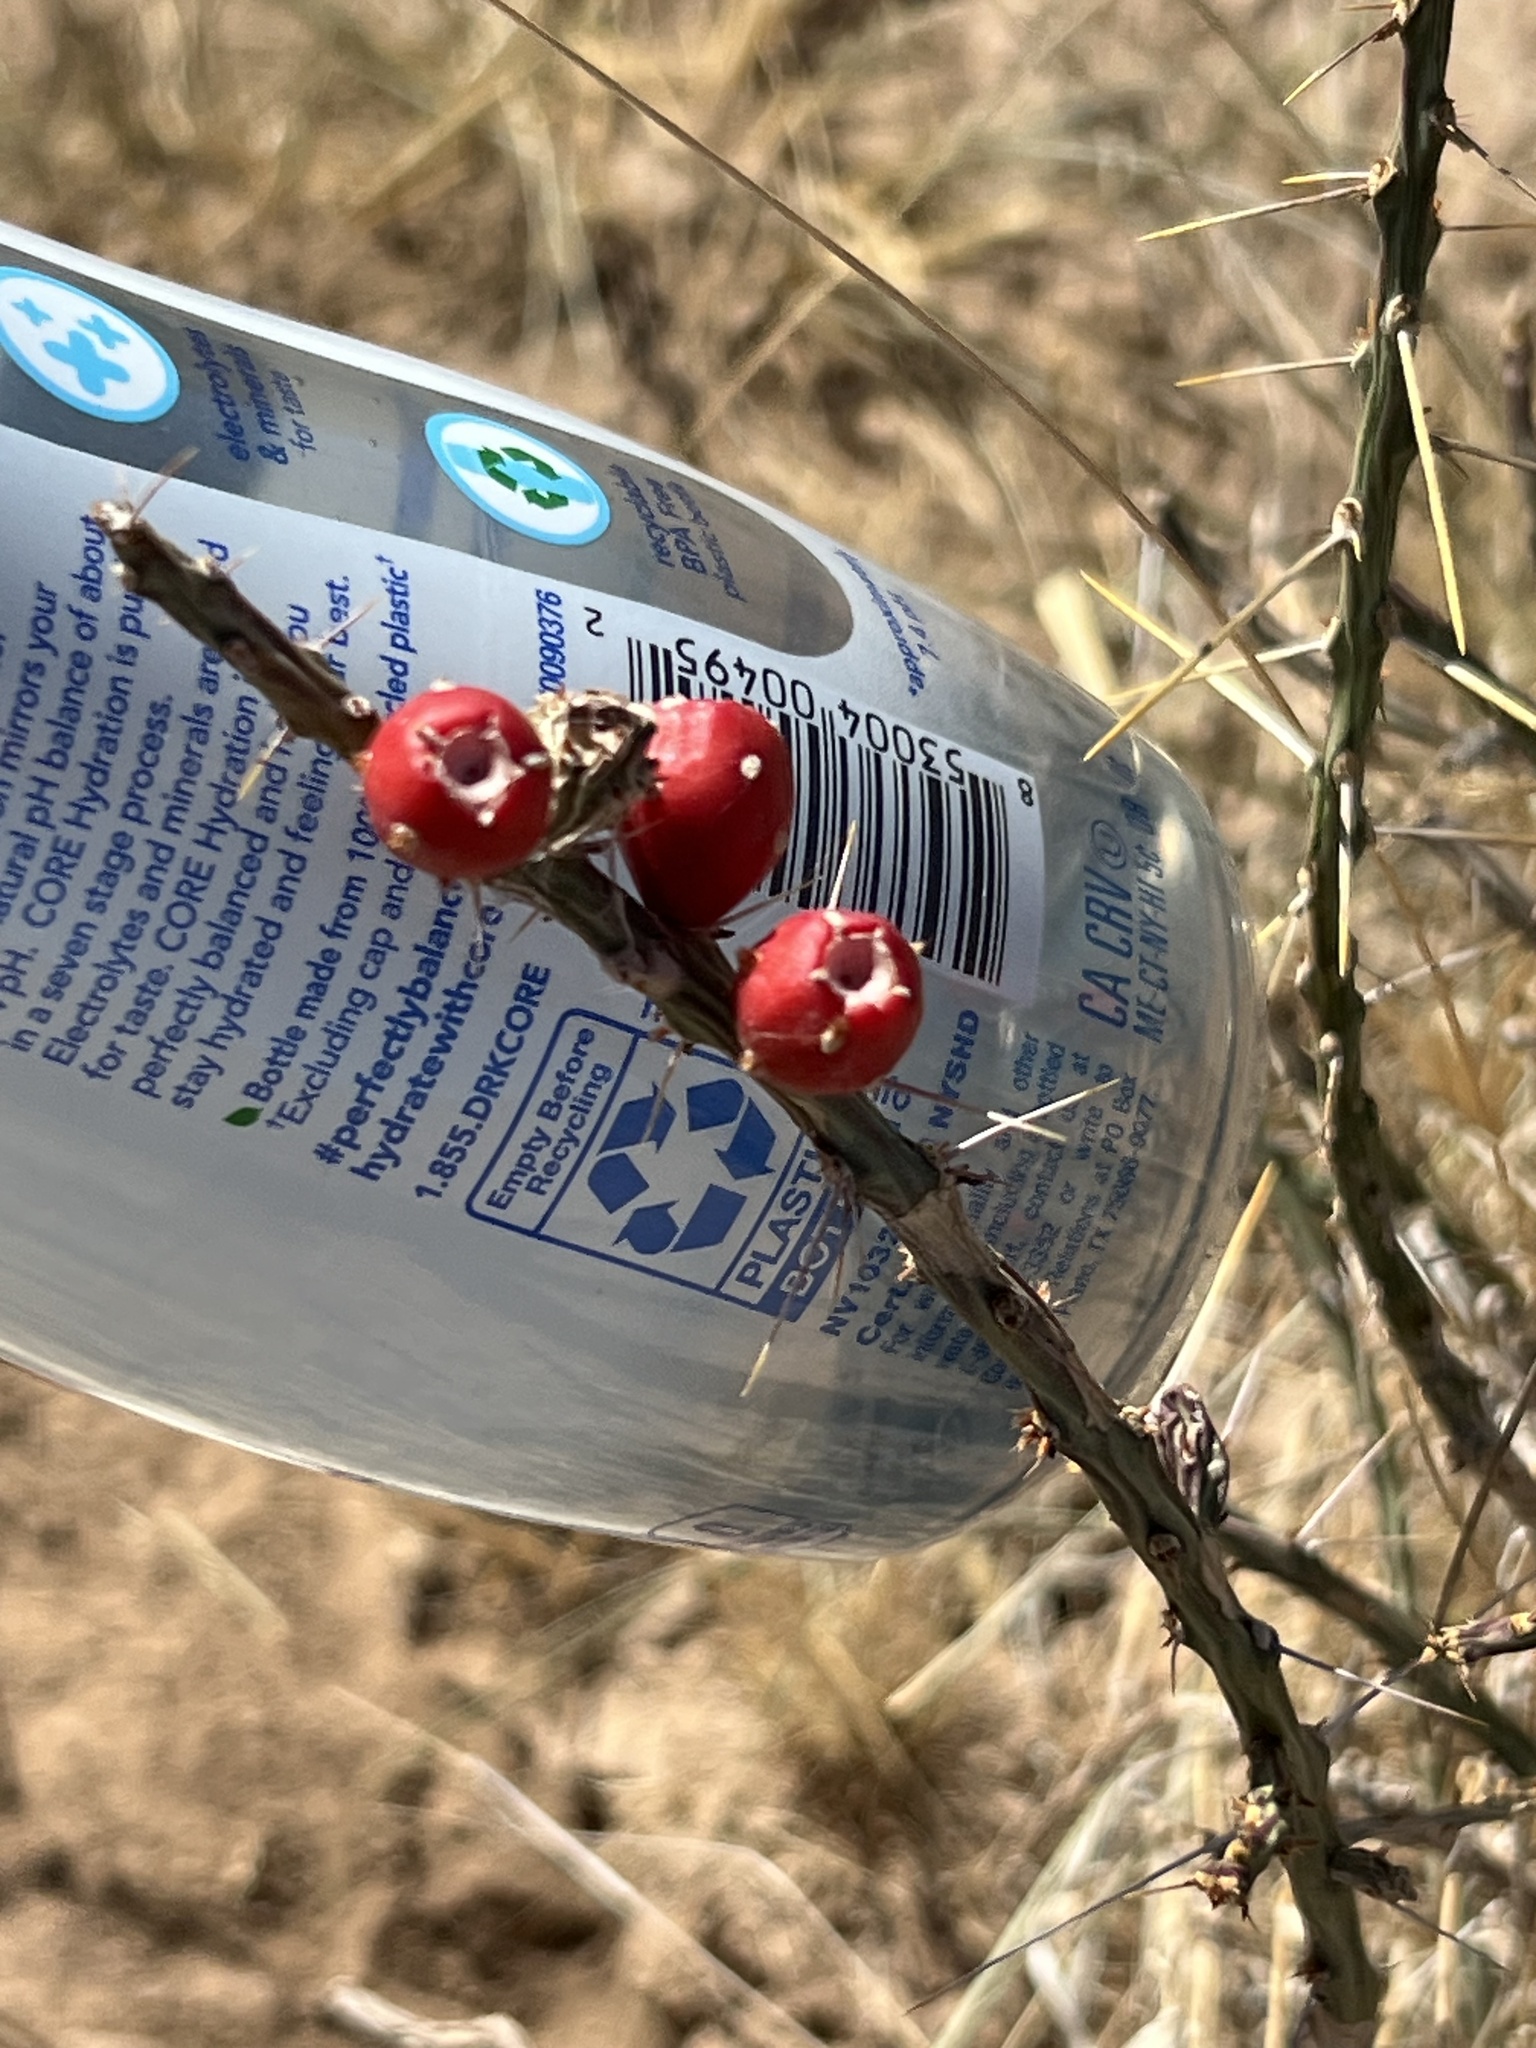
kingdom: Plantae
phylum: Tracheophyta
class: Magnoliopsida
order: Caryophyllales
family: Cactaceae
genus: Cylindropuntia
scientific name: Cylindropuntia leptocaulis
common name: Christmas cactus
